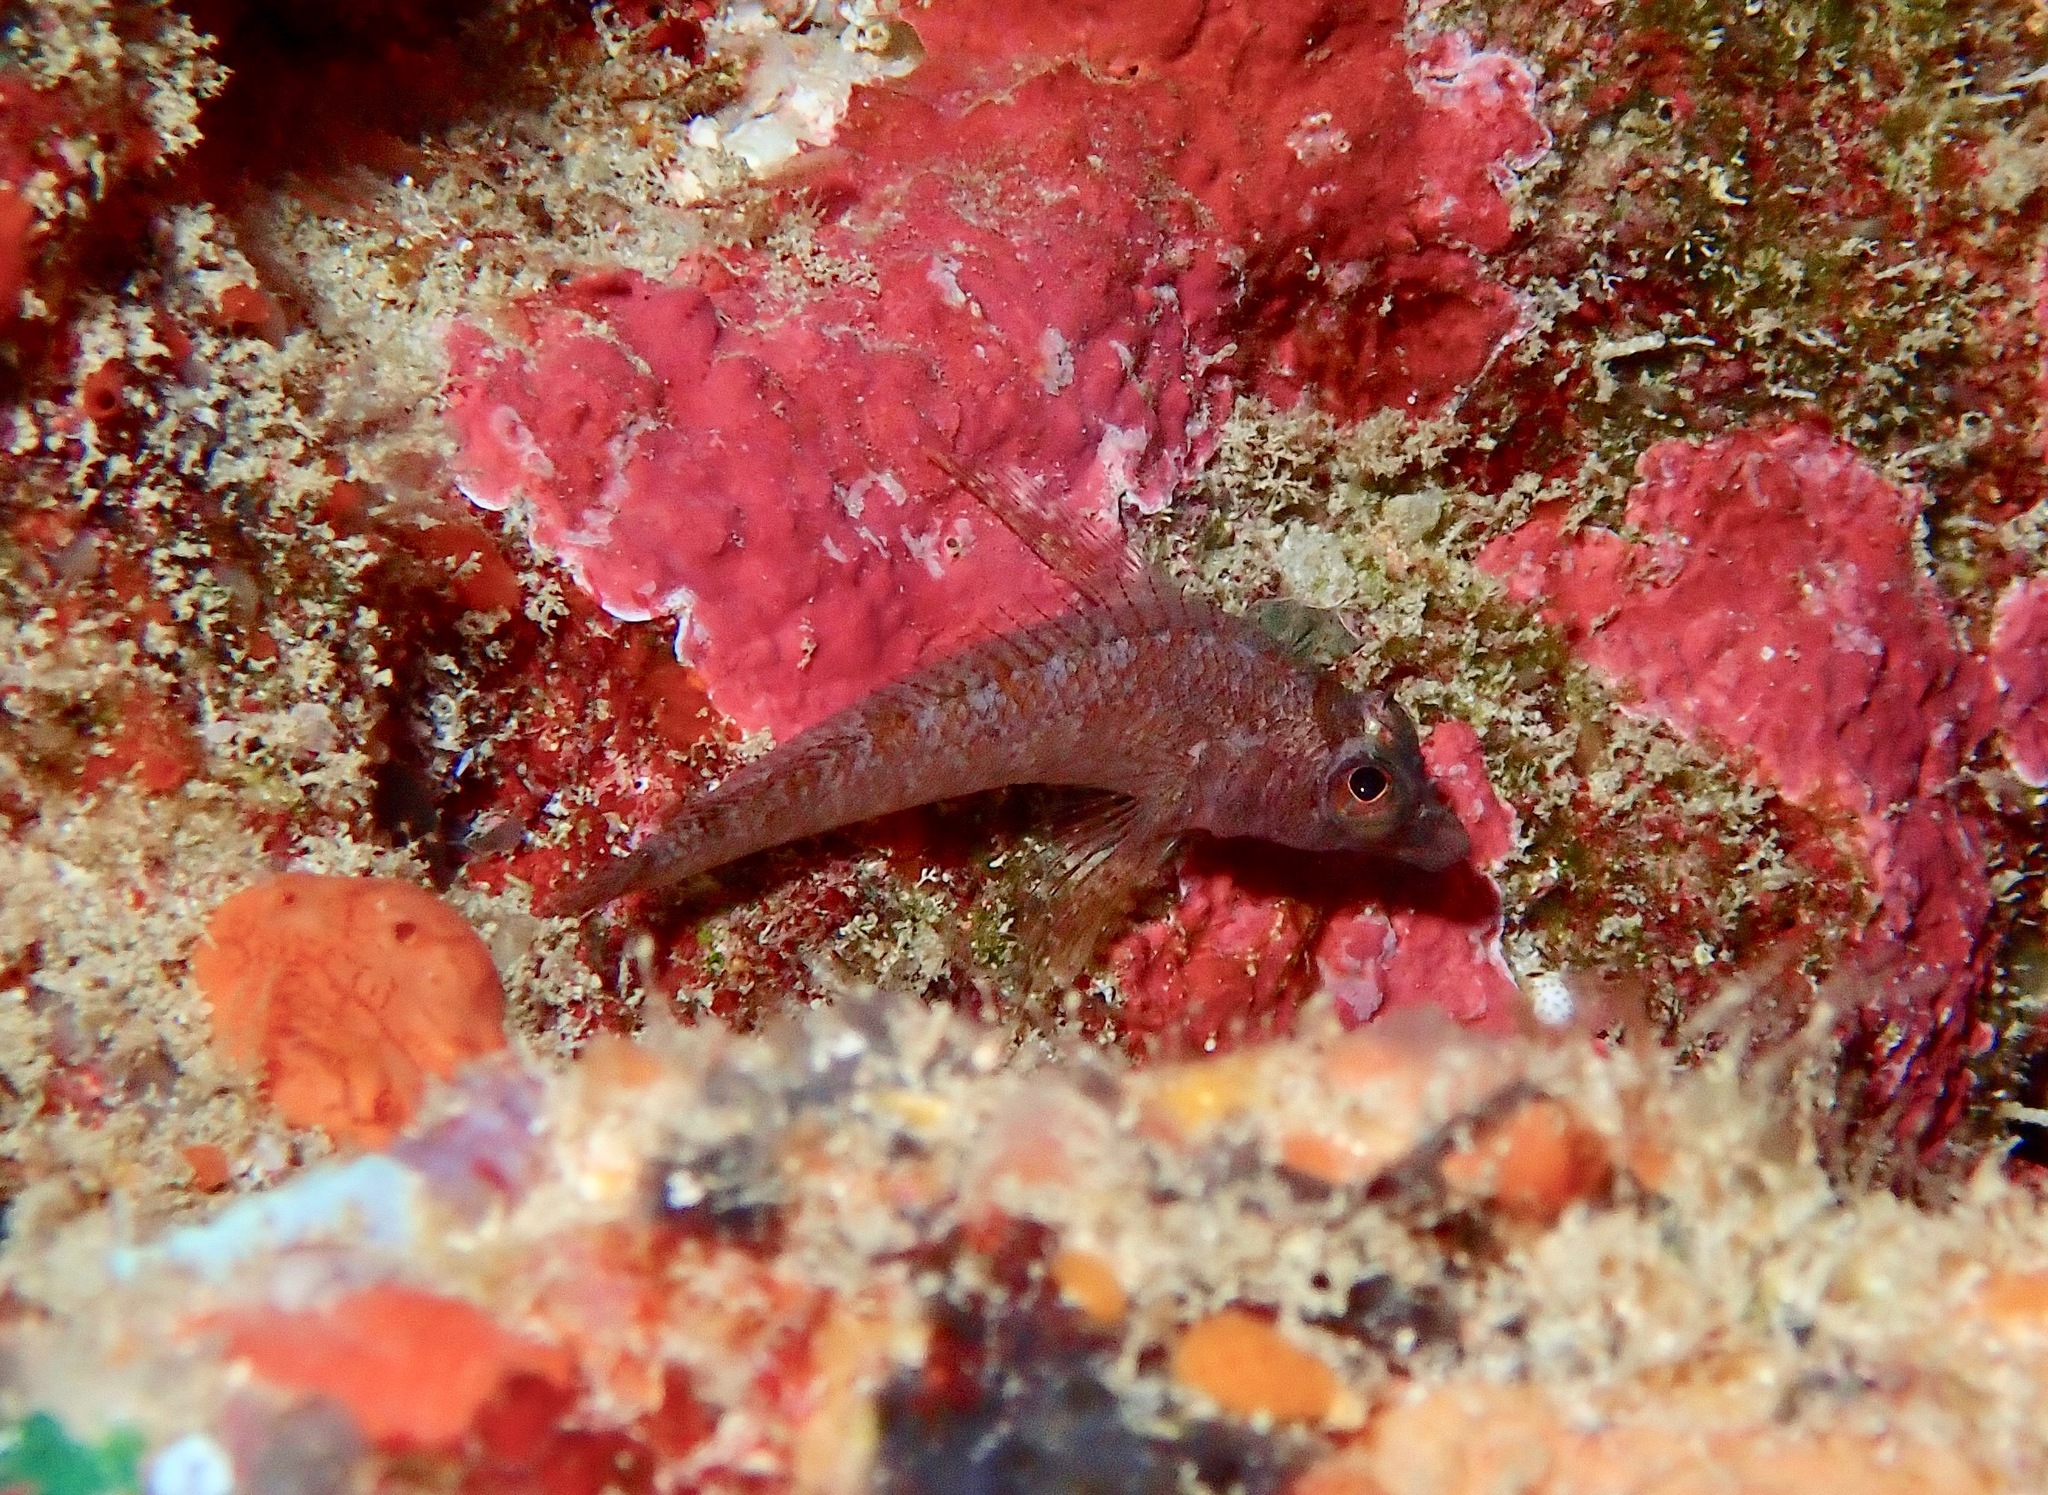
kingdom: Animalia
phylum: Chordata
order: Perciformes
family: Tripterygiidae
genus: Norfolkia
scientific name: Norfolkia squamiceps
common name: Scalyhead triplefin
